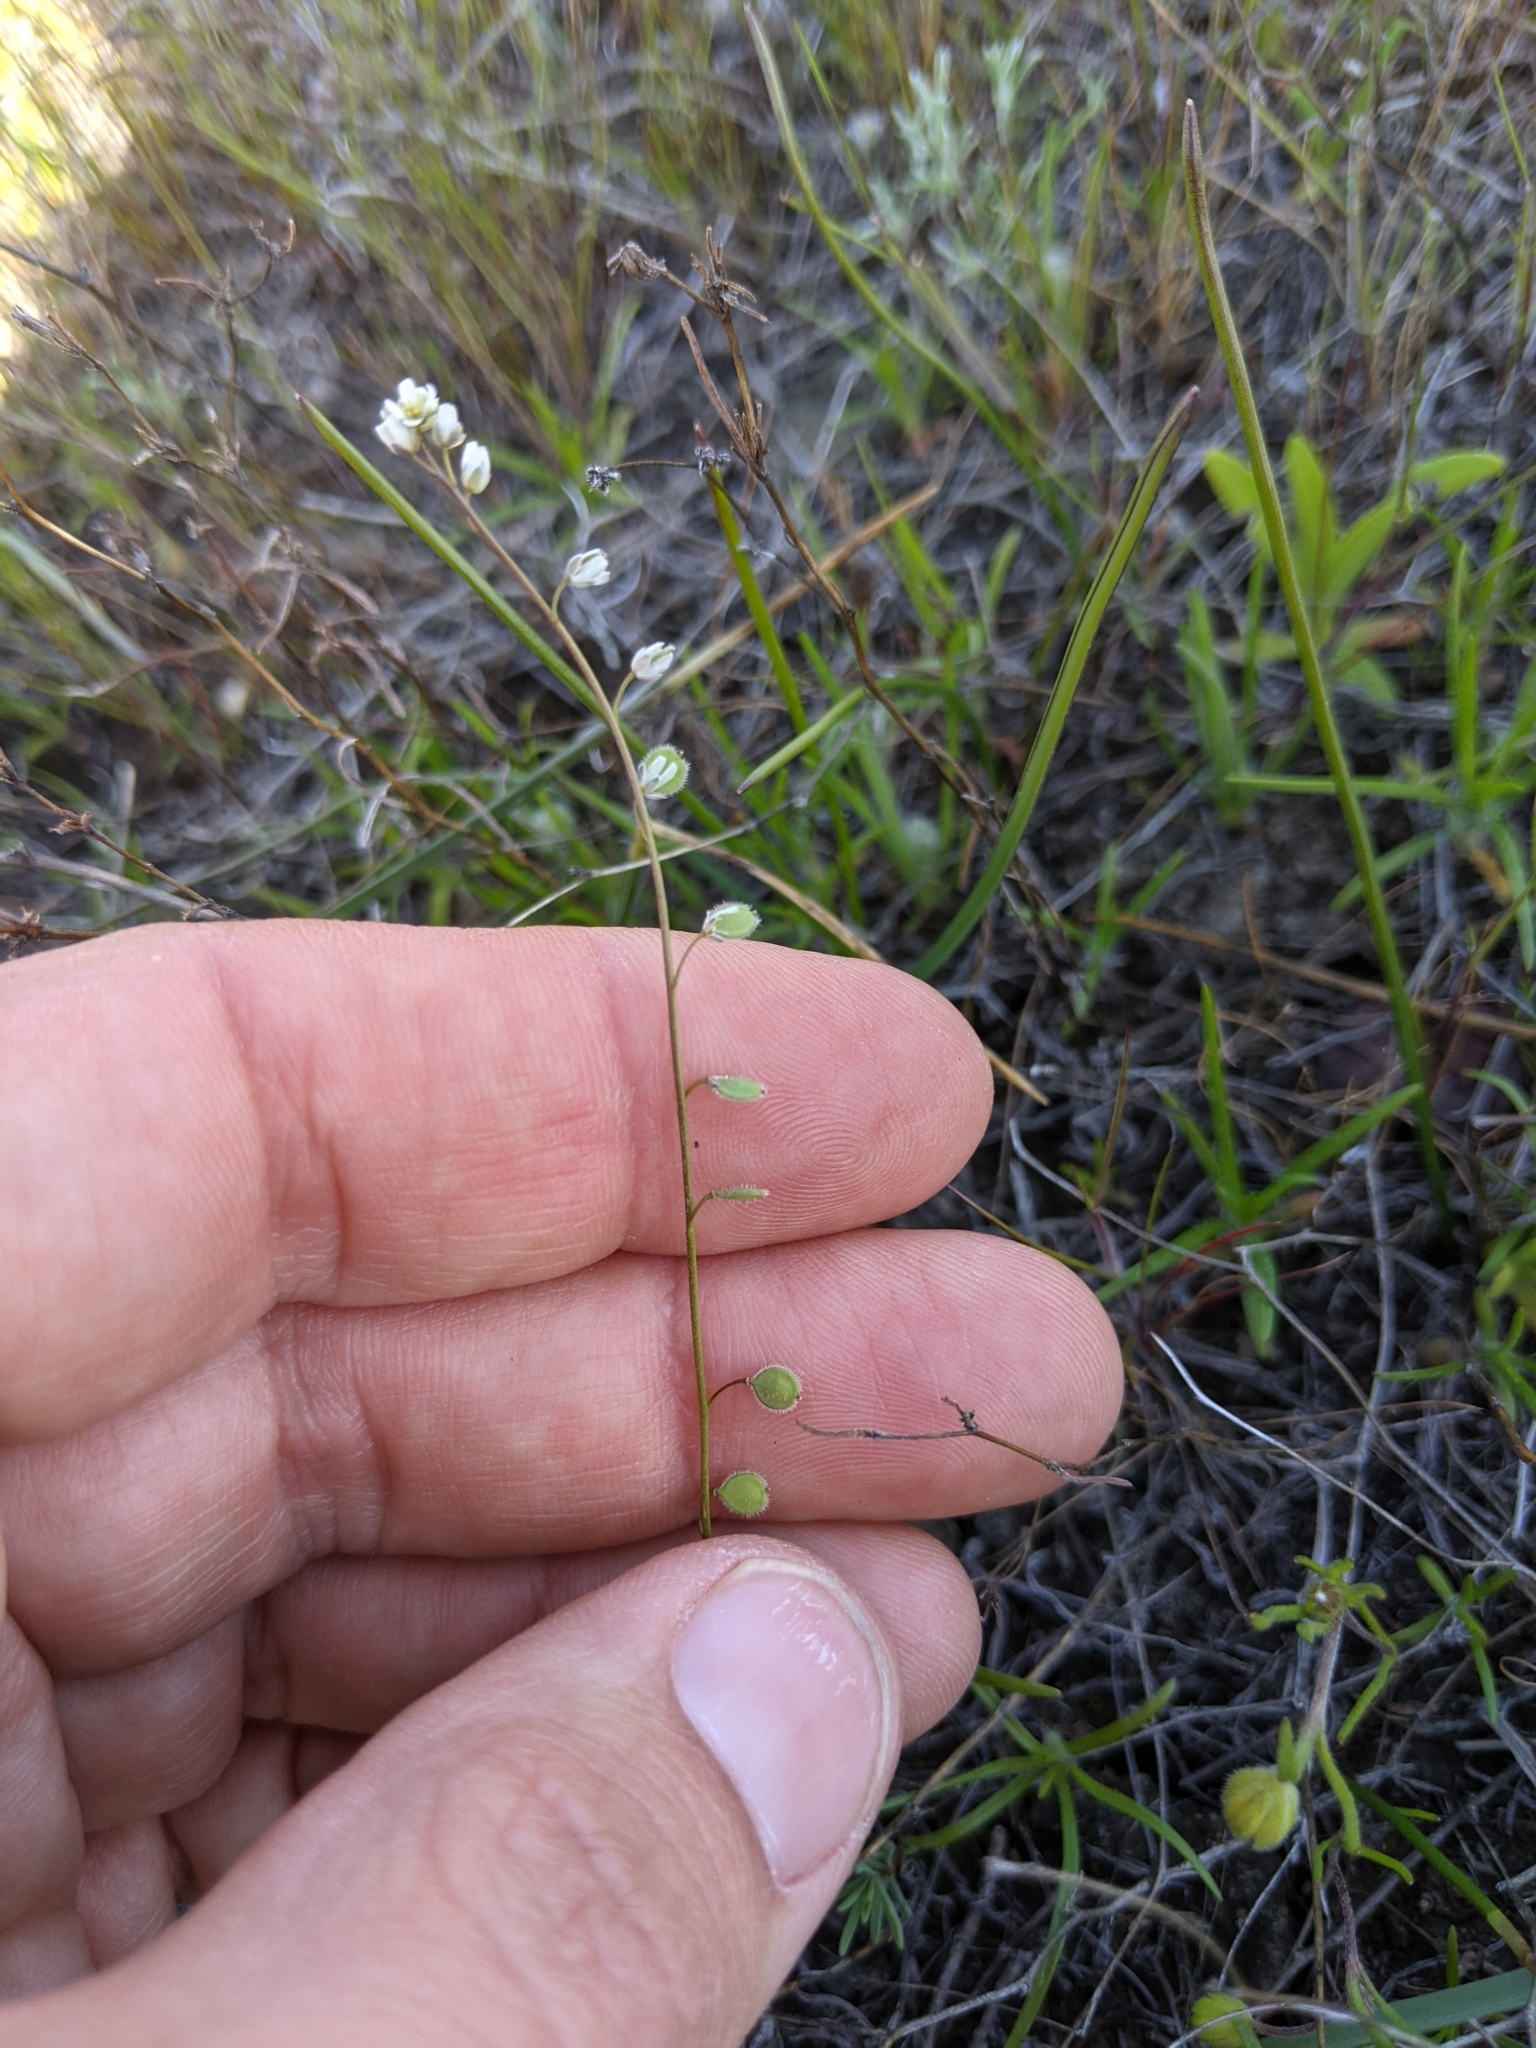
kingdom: Plantae
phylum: Tracheophyta
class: Magnoliopsida
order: Brassicales
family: Brassicaceae
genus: Athysanus
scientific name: Athysanus pusillus
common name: Common sandweed
